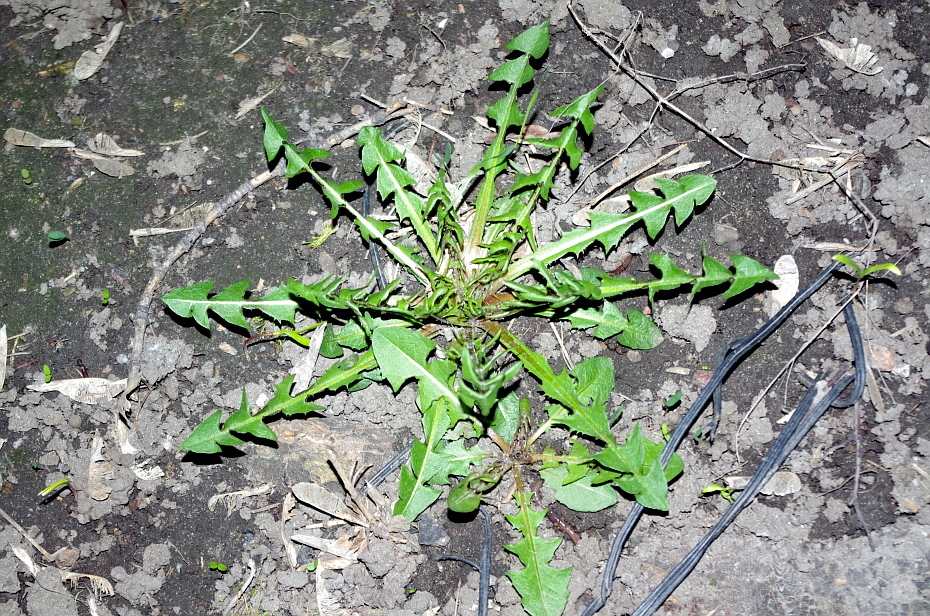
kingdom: Plantae
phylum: Tracheophyta
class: Magnoliopsida
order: Asterales
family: Asteraceae
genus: Taraxacum
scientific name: Taraxacum officinale
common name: Common dandelion
